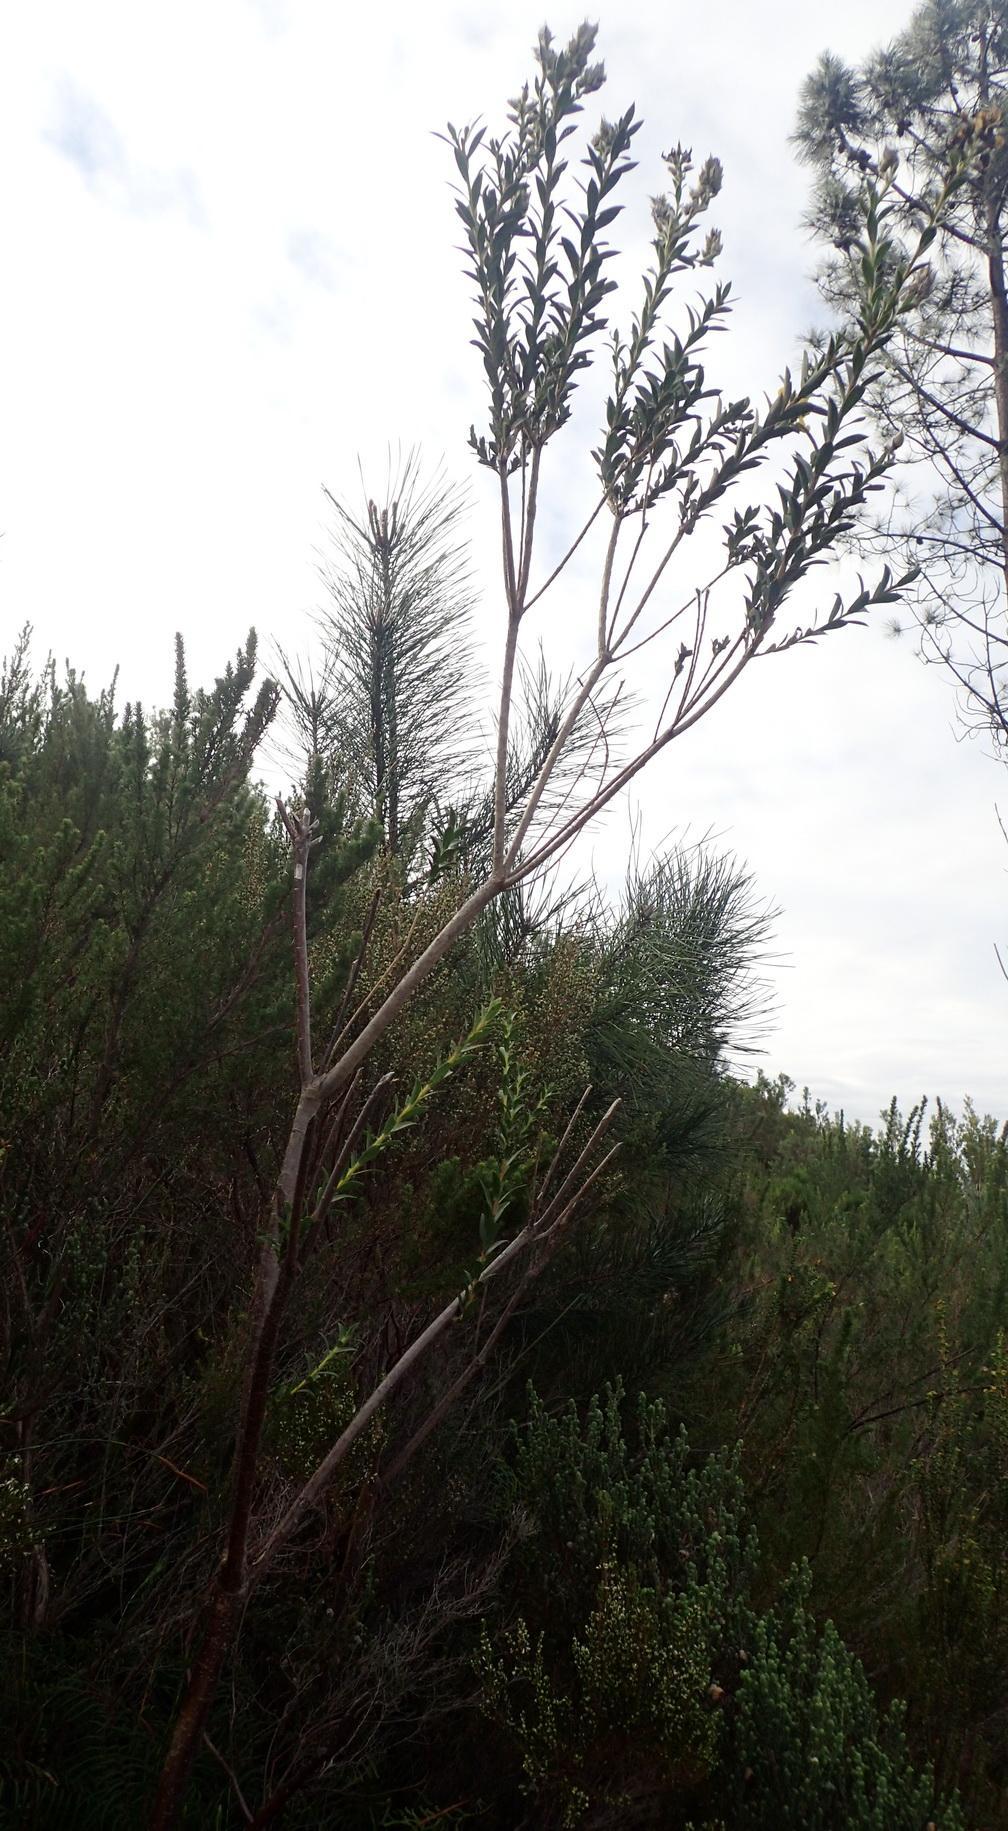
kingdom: Plantae
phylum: Tracheophyta
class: Magnoliopsida
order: Fabales
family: Fabaceae
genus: Liparia
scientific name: Liparia hirsuta
